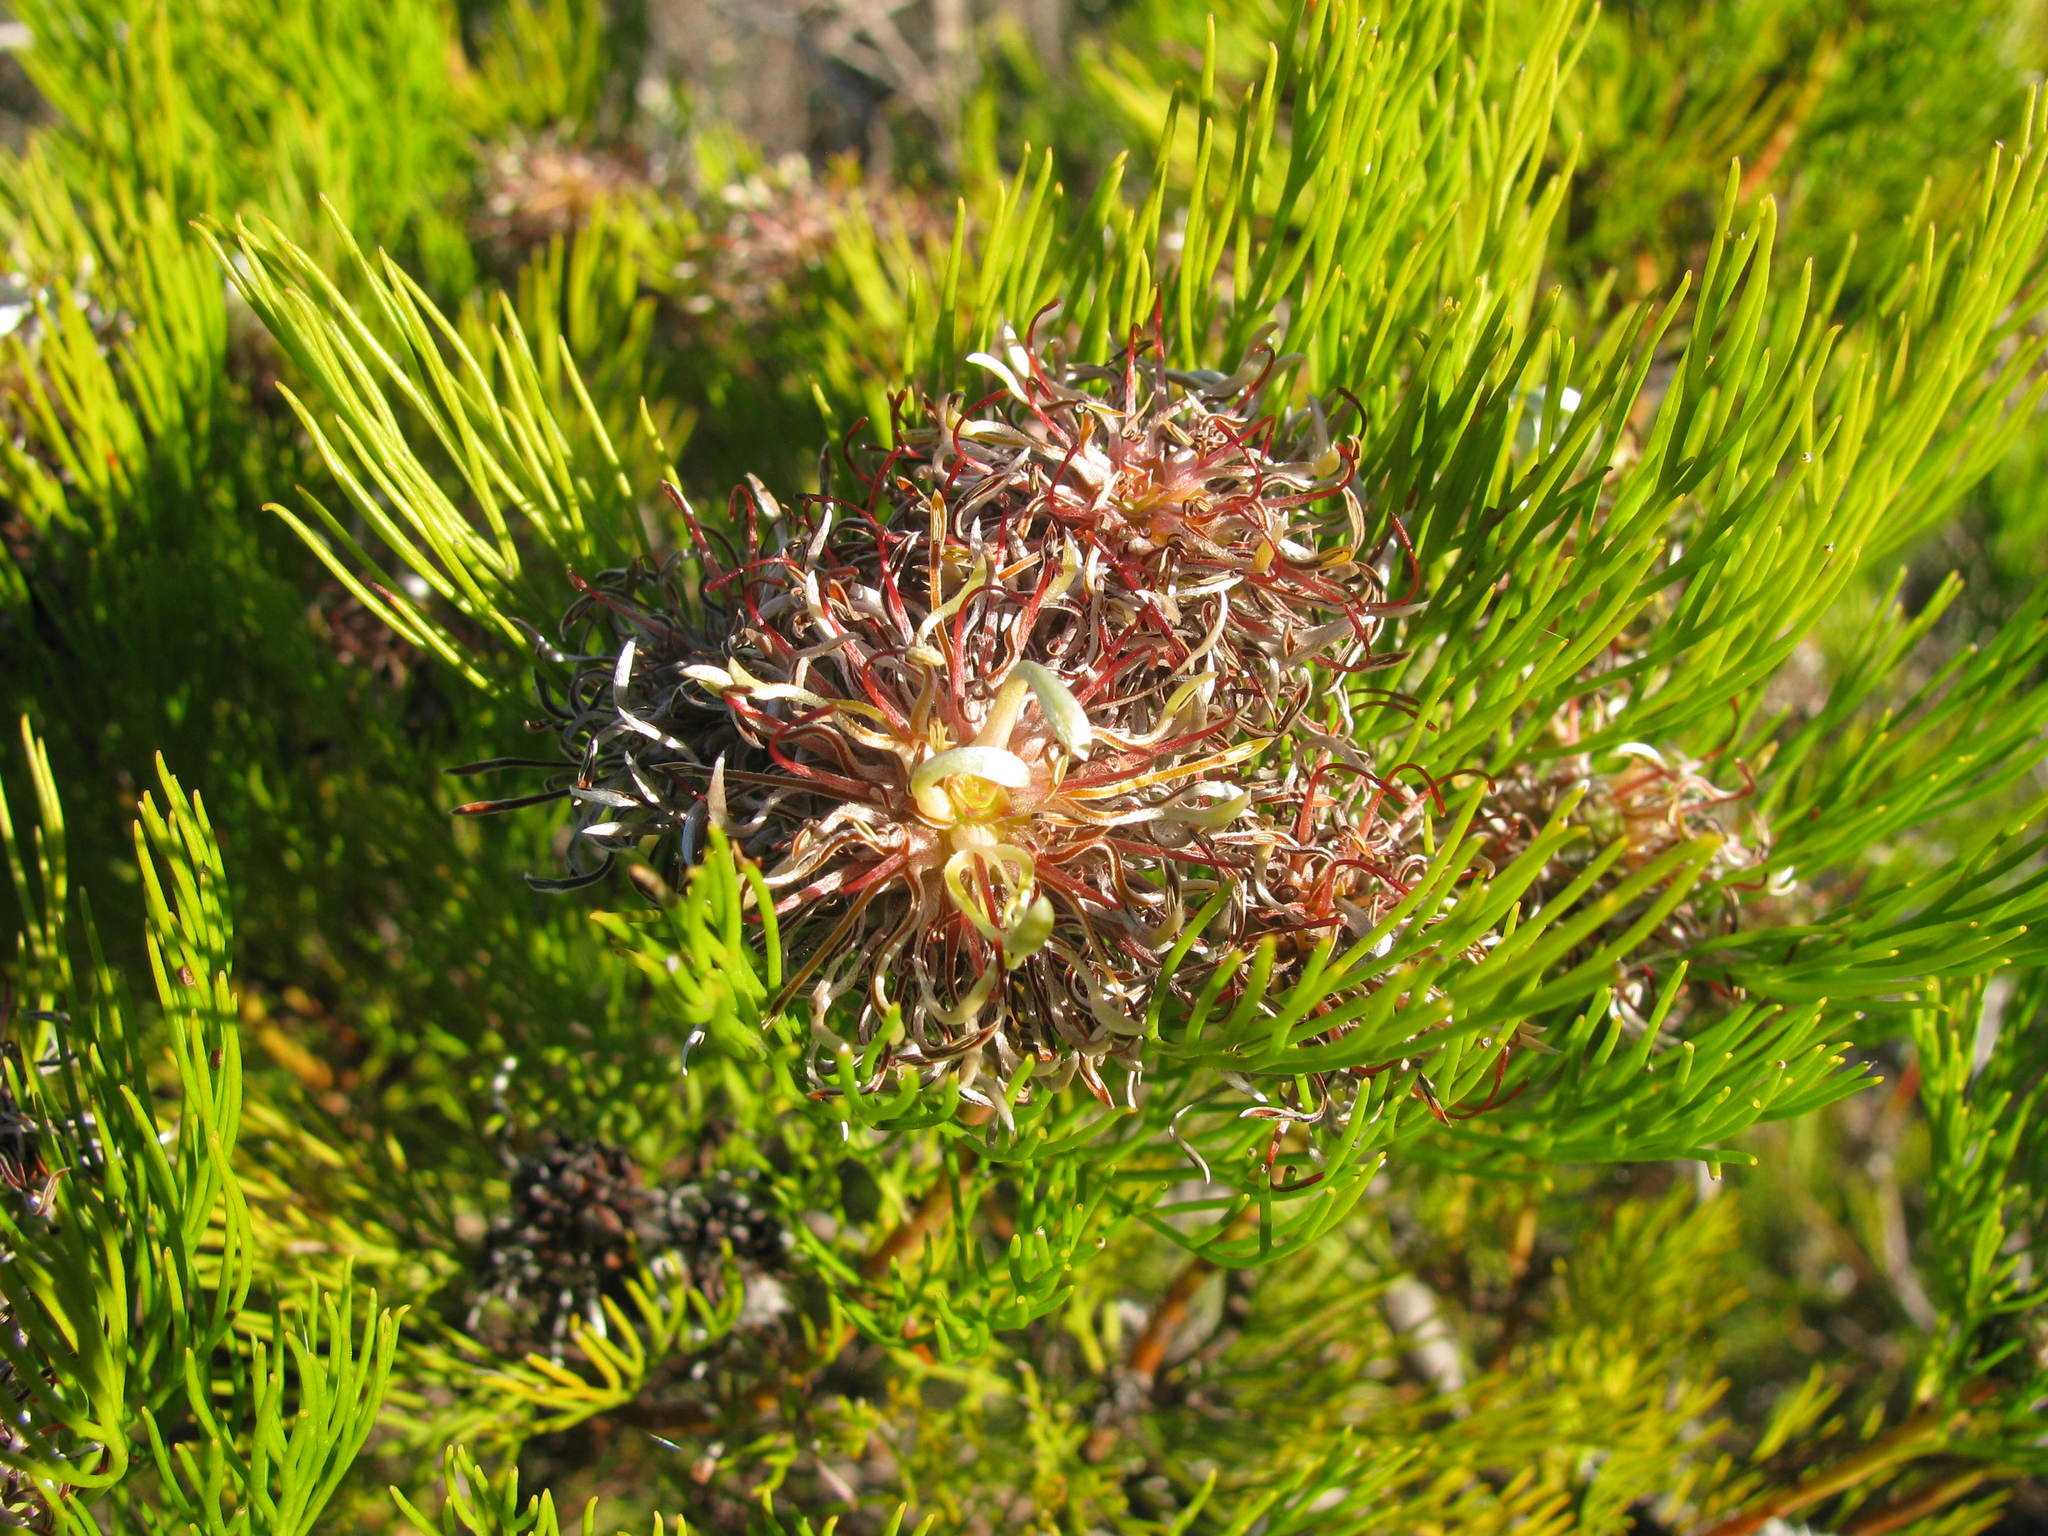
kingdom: Plantae
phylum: Tracheophyta
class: Magnoliopsida
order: Proteales
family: Proteaceae
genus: Serruria
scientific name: Serruria acrocarpa
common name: Common rootstock spiderhead
